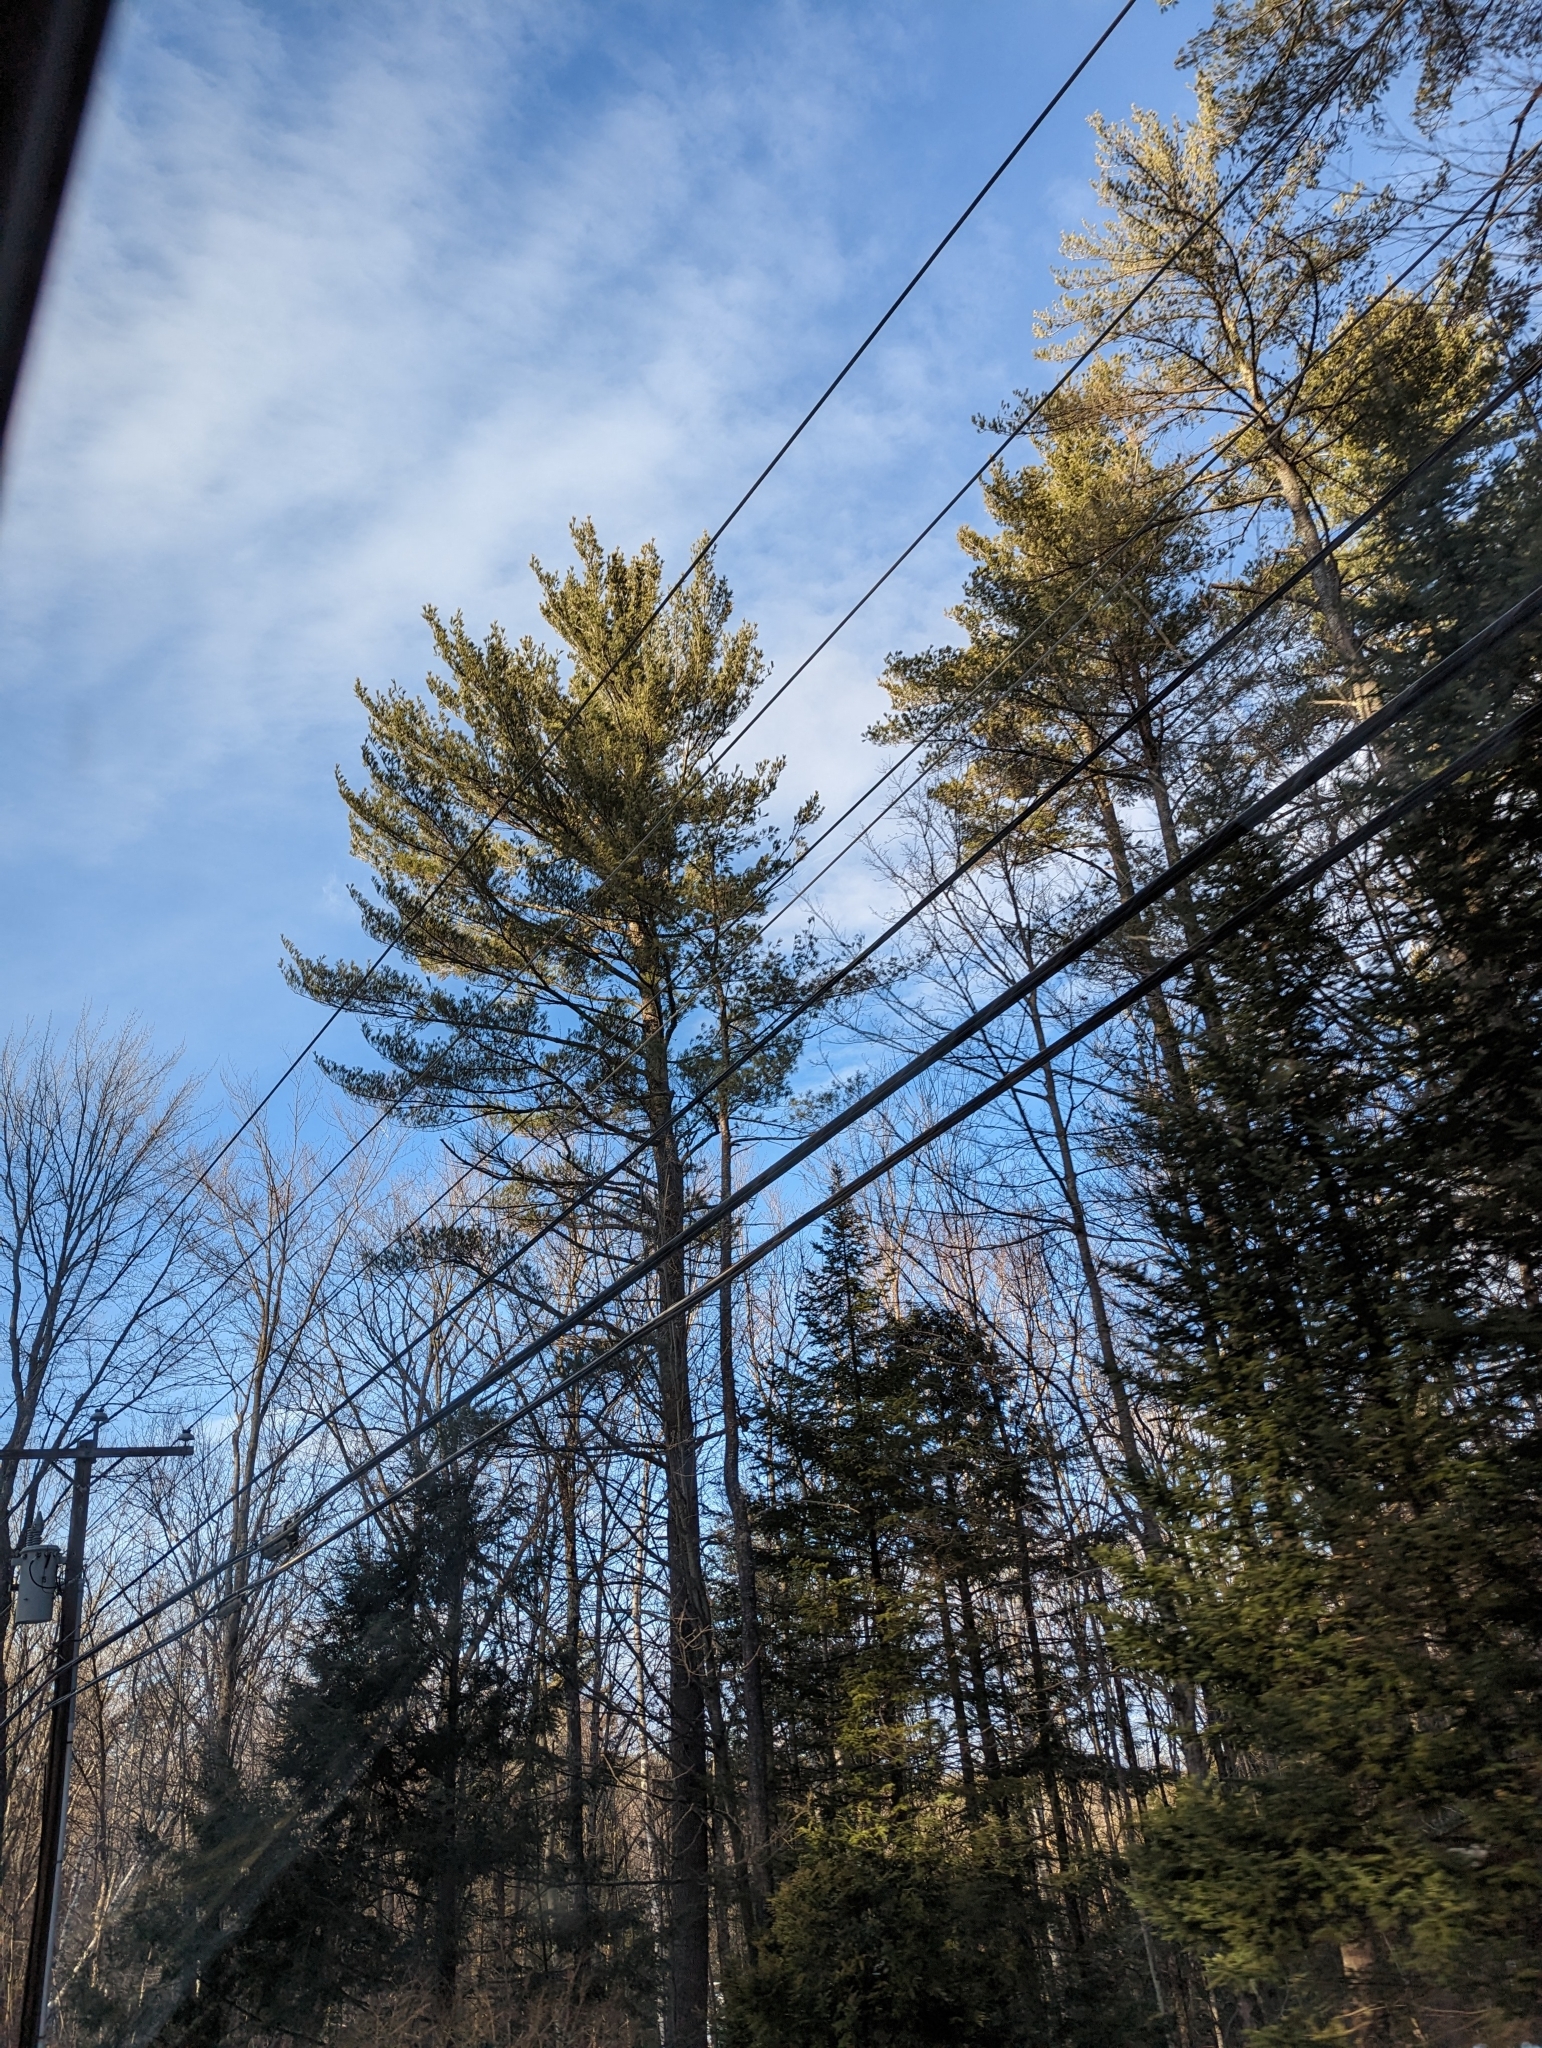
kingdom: Plantae
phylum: Tracheophyta
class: Pinopsida
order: Pinales
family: Pinaceae
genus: Pinus
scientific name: Pinus strobus
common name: Weymouth pine
